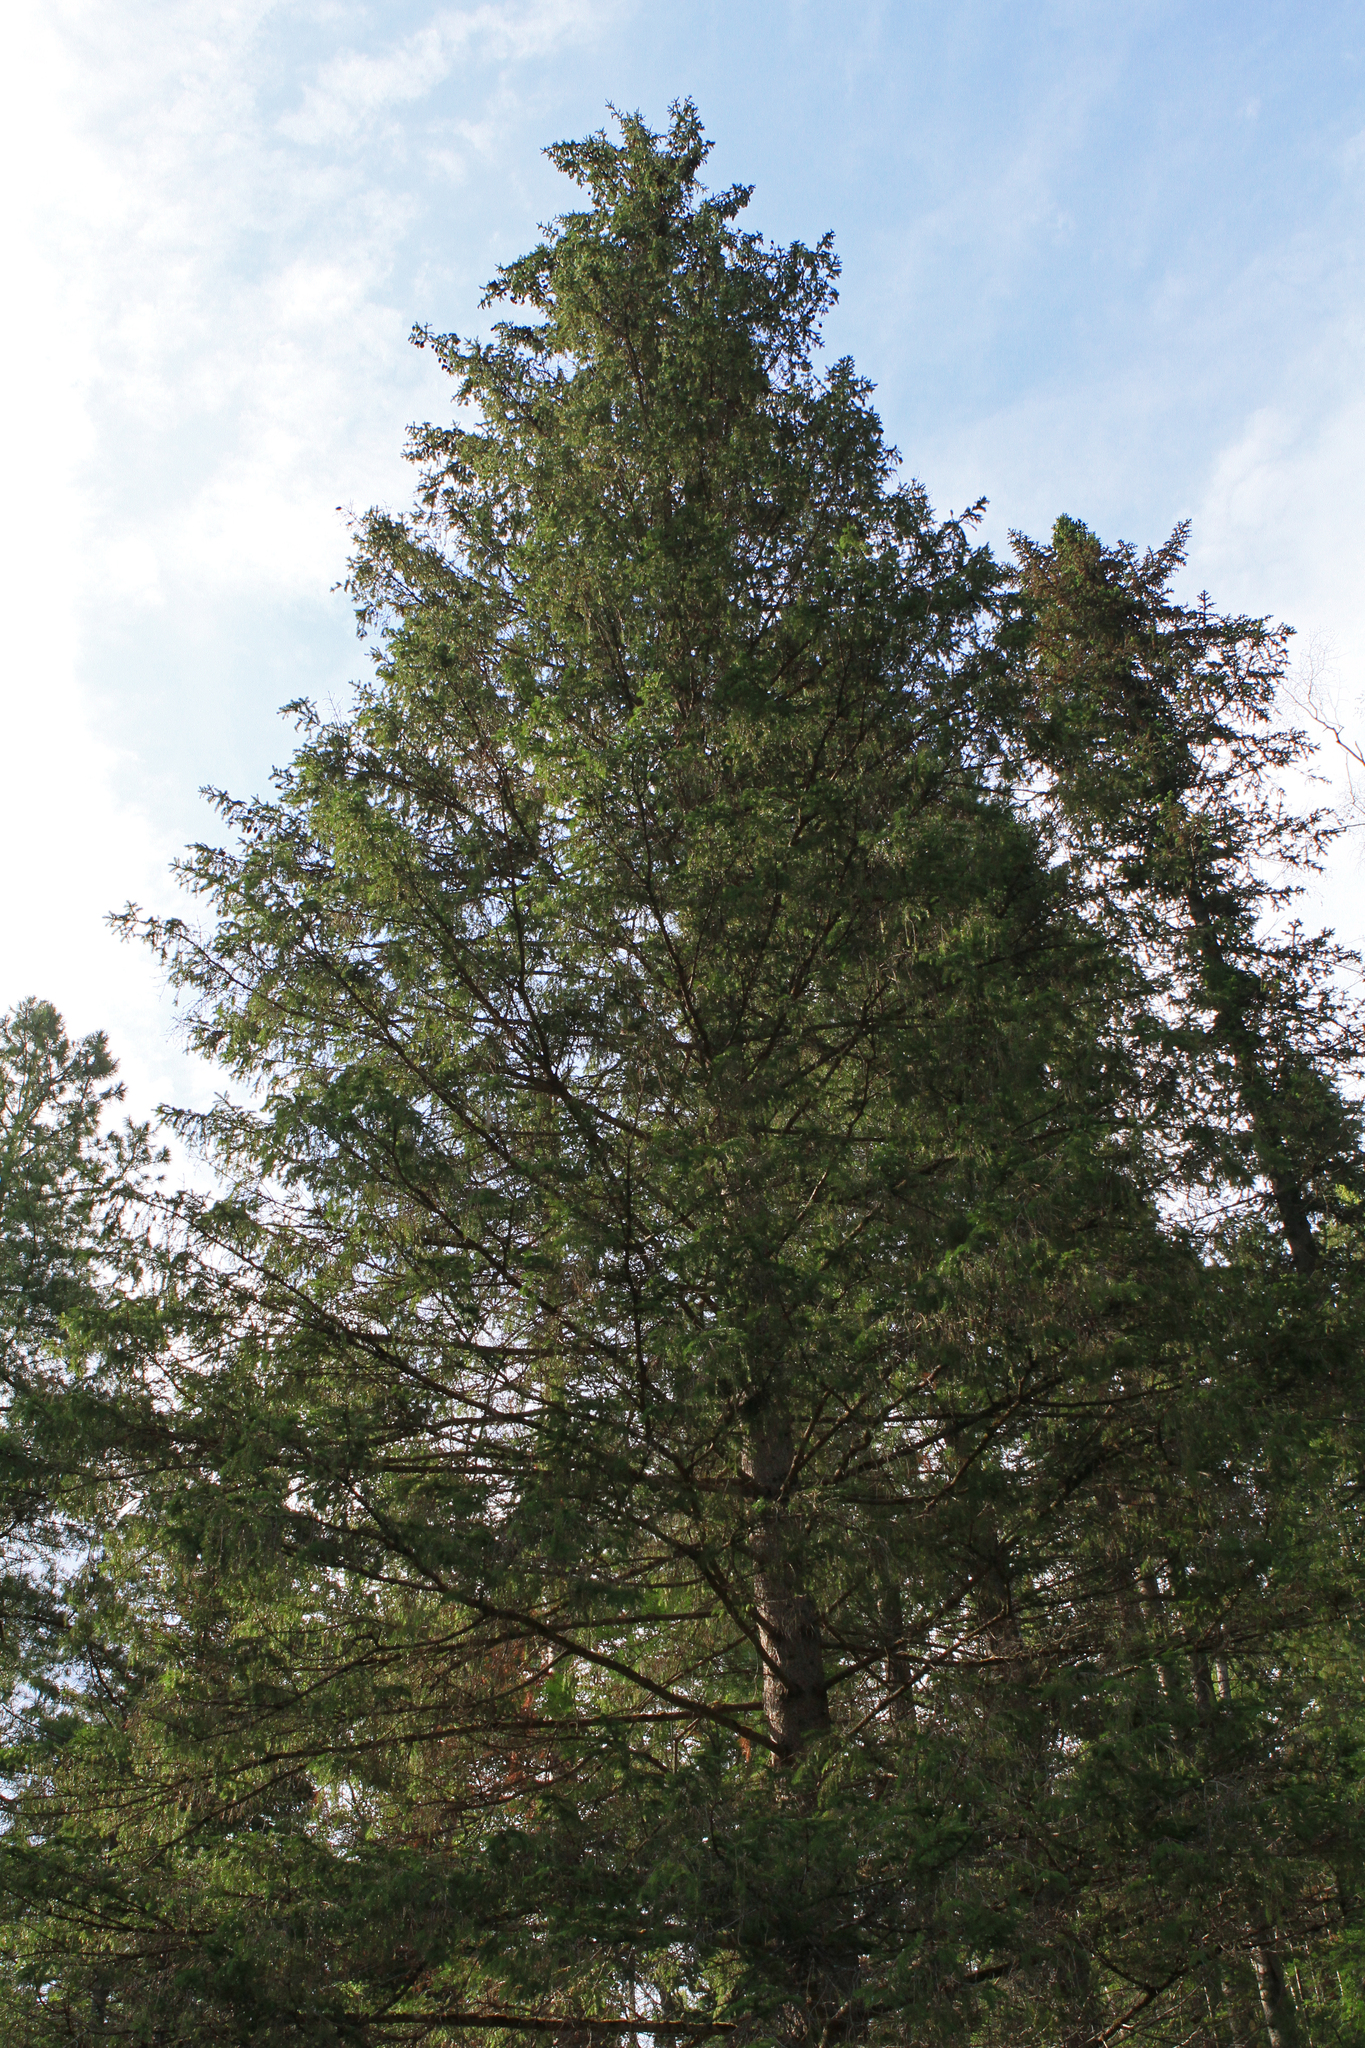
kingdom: Plantae
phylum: Tracheophyta
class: Pinopsida
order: Pinales
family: Pinaceae
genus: Larix
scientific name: Larix sibirica
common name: Siberian larch
